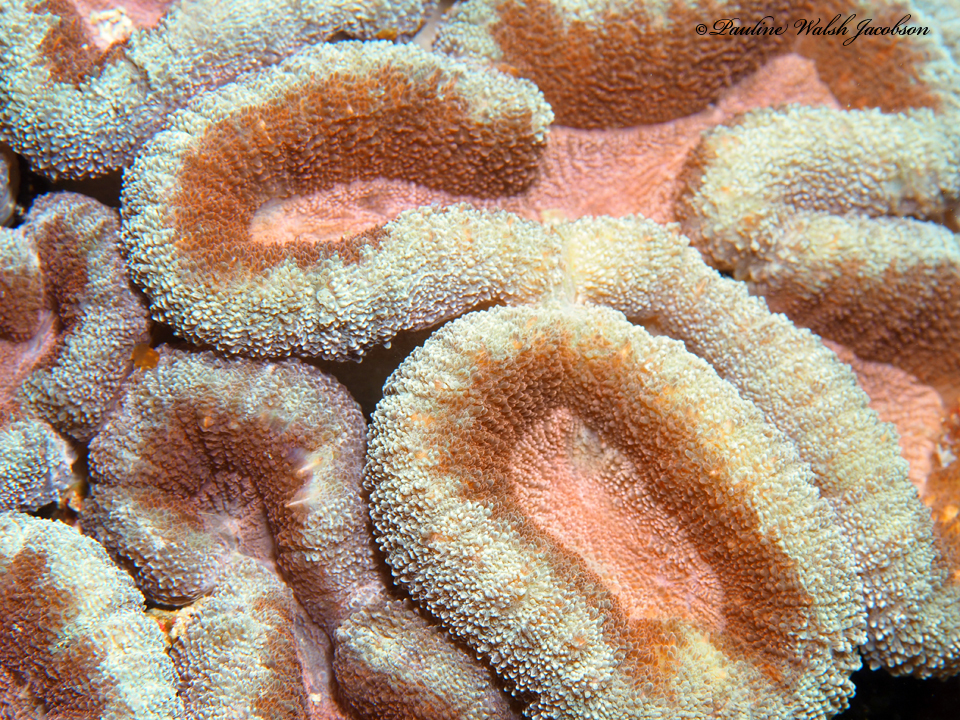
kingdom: Animalia
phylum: Cnidaria
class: Anthozoa
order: Scleractinia
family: Lobophylliidae
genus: Lobophyllia
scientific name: Lobophyllia hemprichii
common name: Lobed cactus coral
